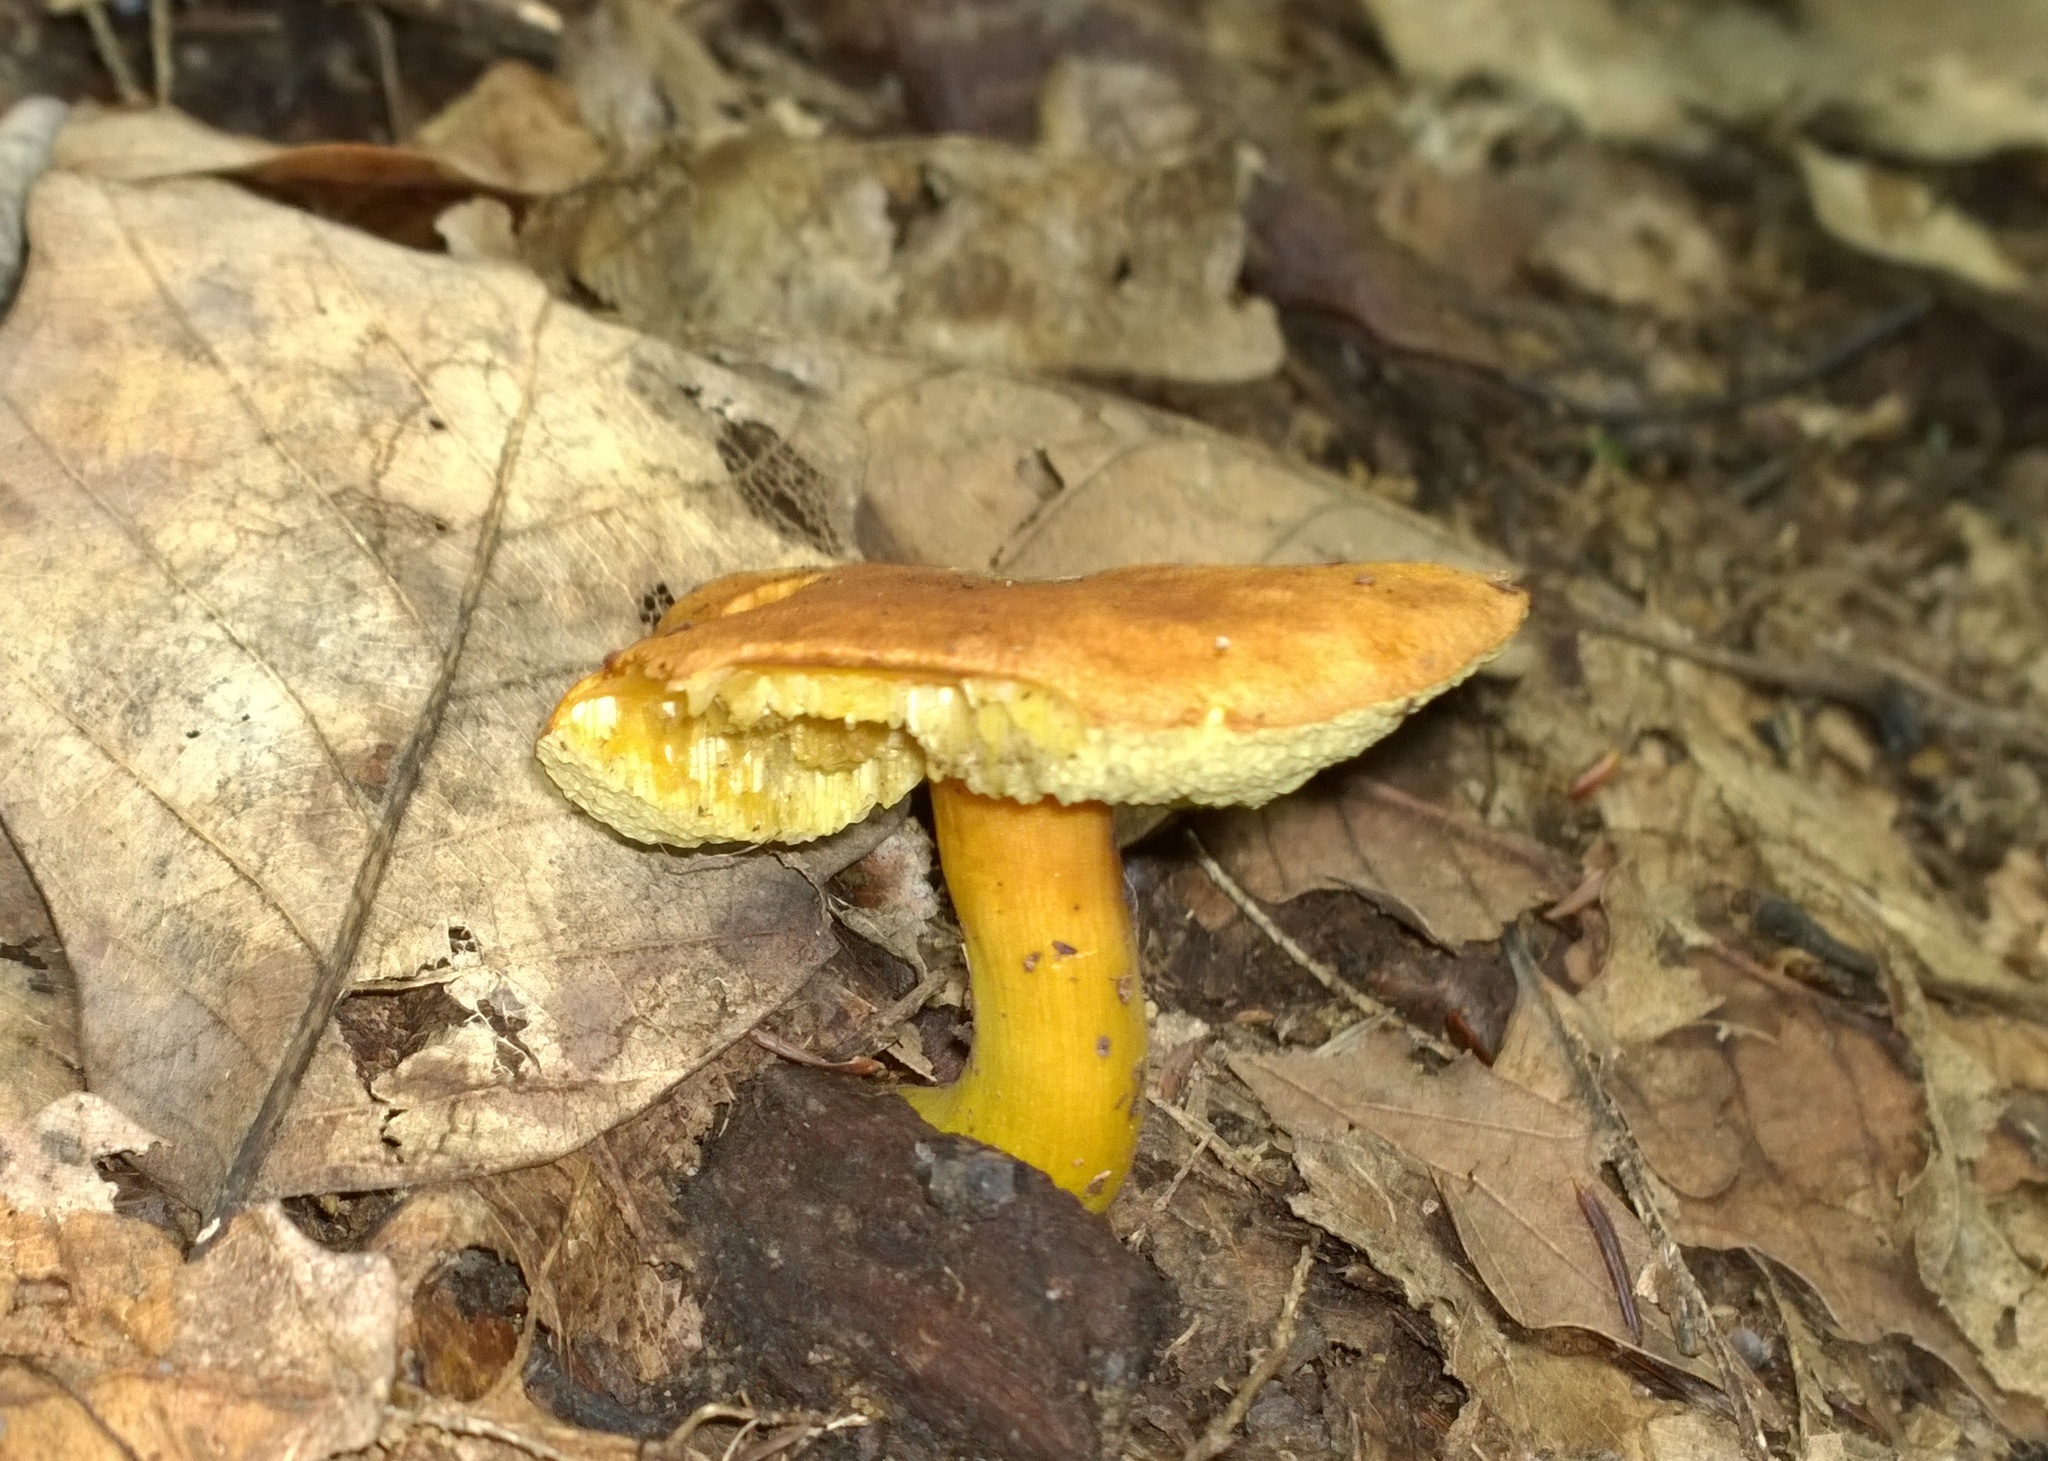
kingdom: Fungi
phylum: Basidiomycota
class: Agaricomycetes
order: Boletales
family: Boletaceae
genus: Aureoboletus
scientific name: Aureoboletus roxanae
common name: Roxane's bolete
